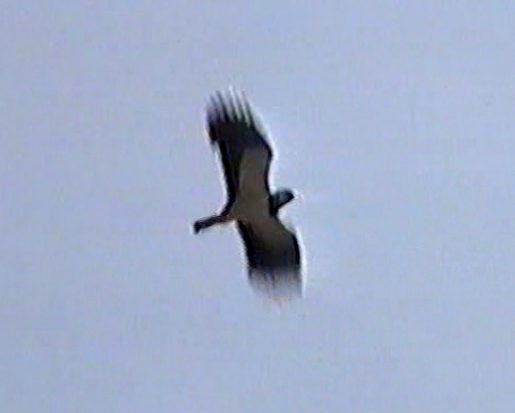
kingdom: Animalia
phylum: Chordata
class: Aves
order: Charadriiformes
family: Charadriidae
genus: Vanellus
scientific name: Vanellus vanellus
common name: Northern lapwing
